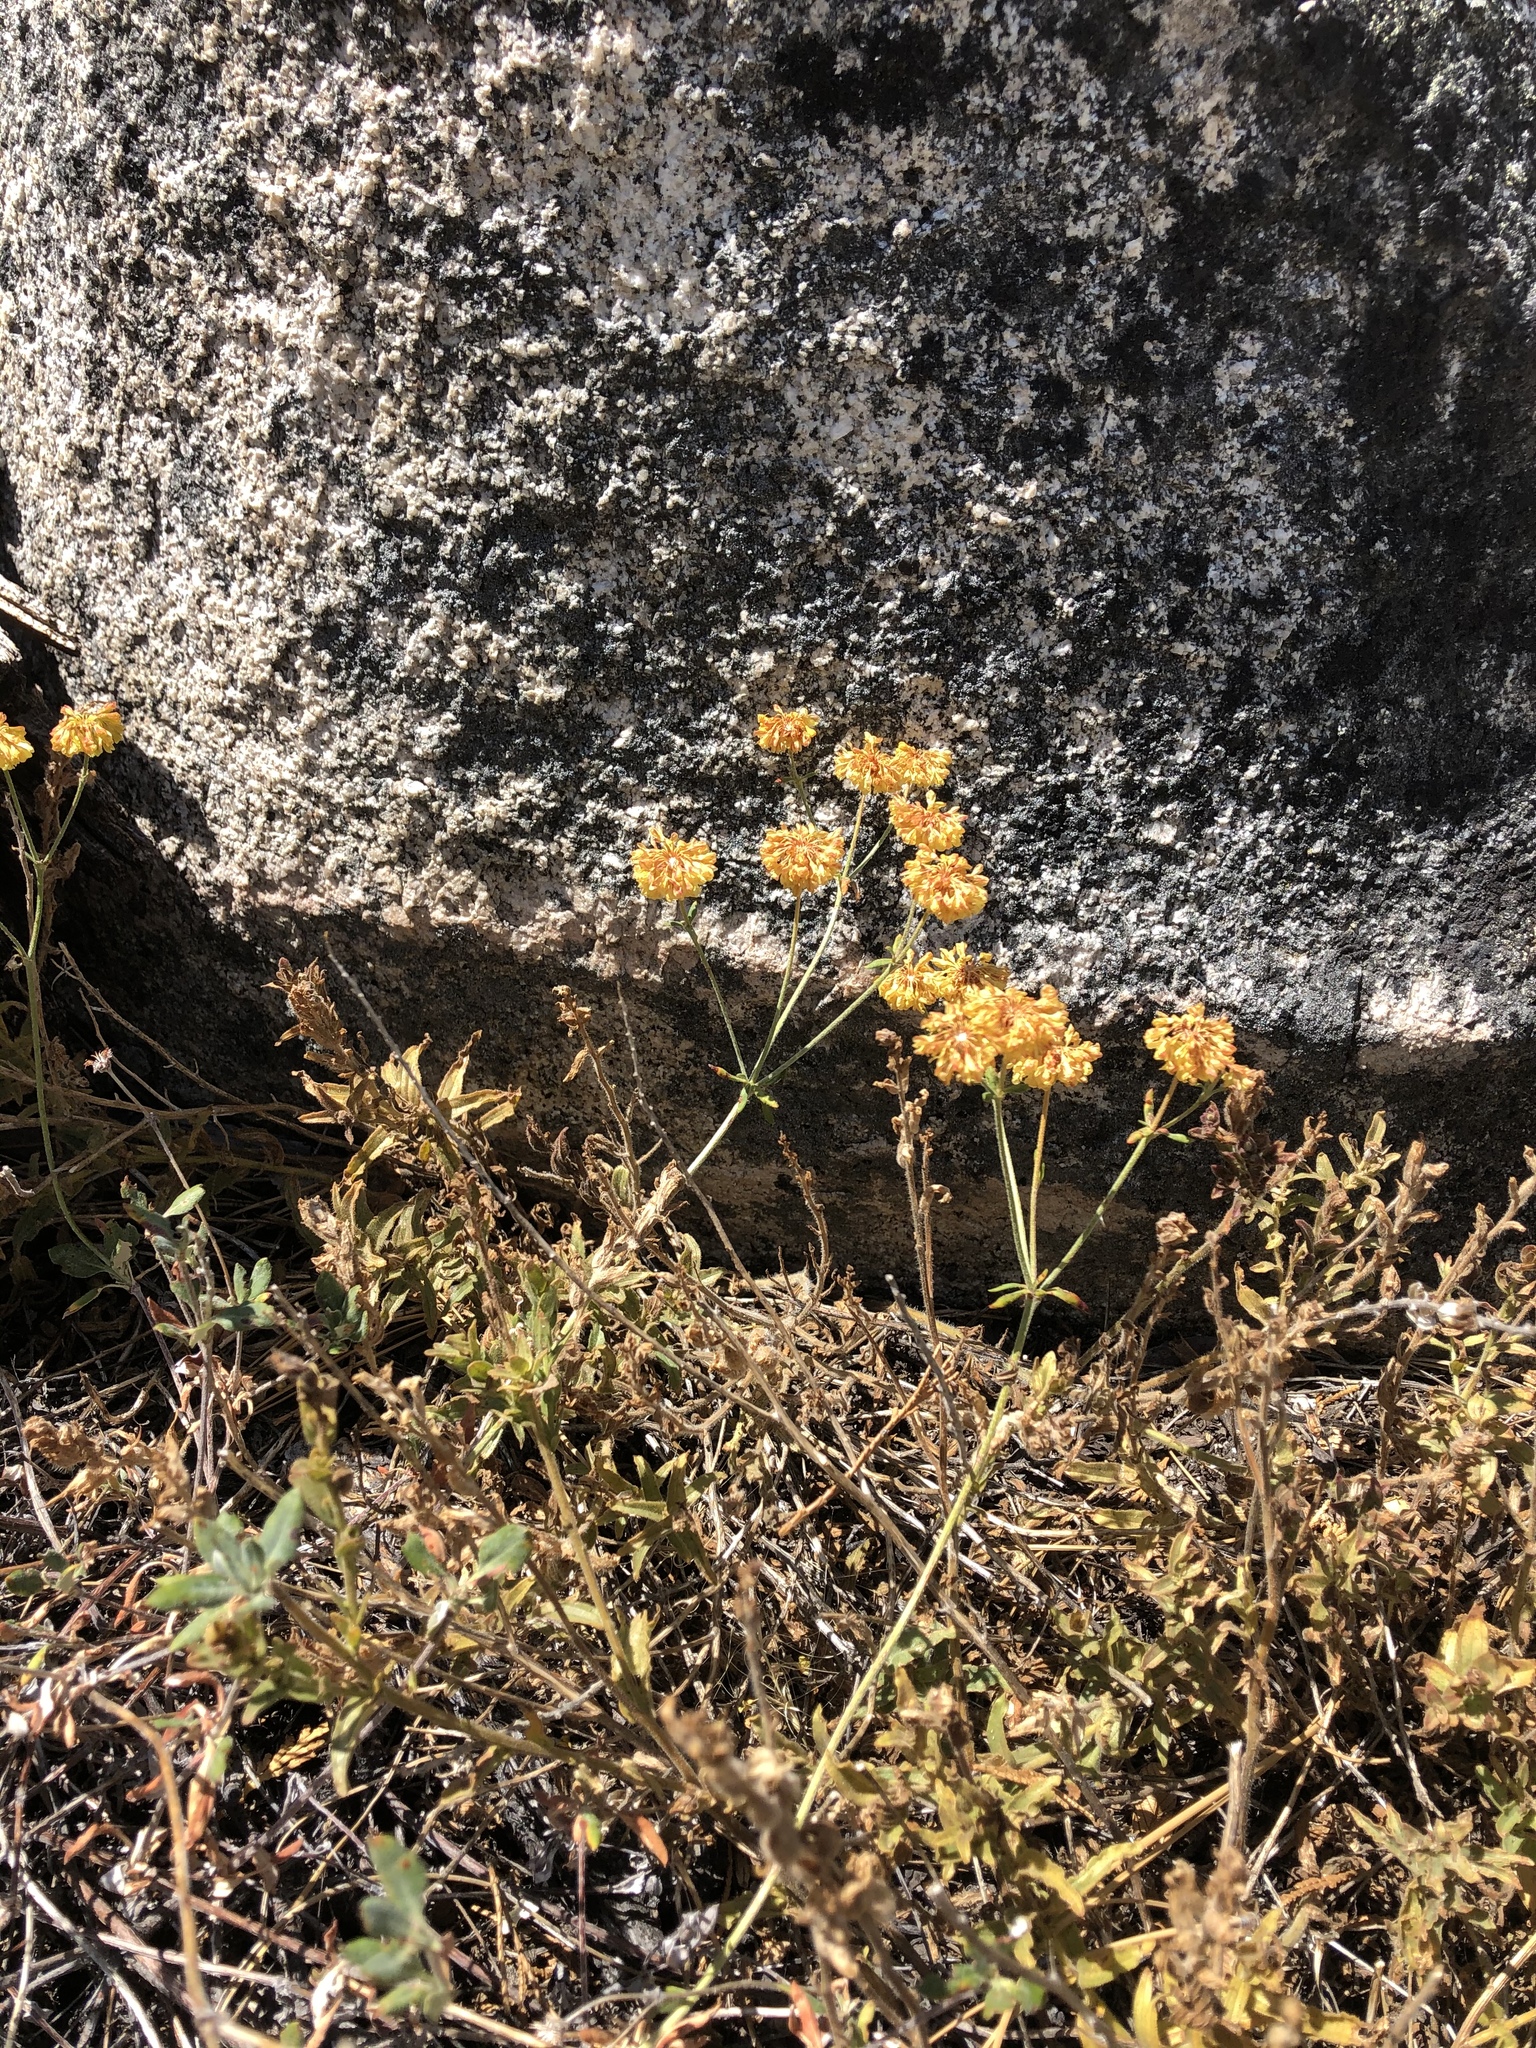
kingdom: Plantae
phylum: Tracheophyta
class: Magnoliopsida
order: Caryophyllales
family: Polygonaceae
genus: Eriogonum
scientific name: Eriogonum umbellatum
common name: Sulfur-buckwheat
